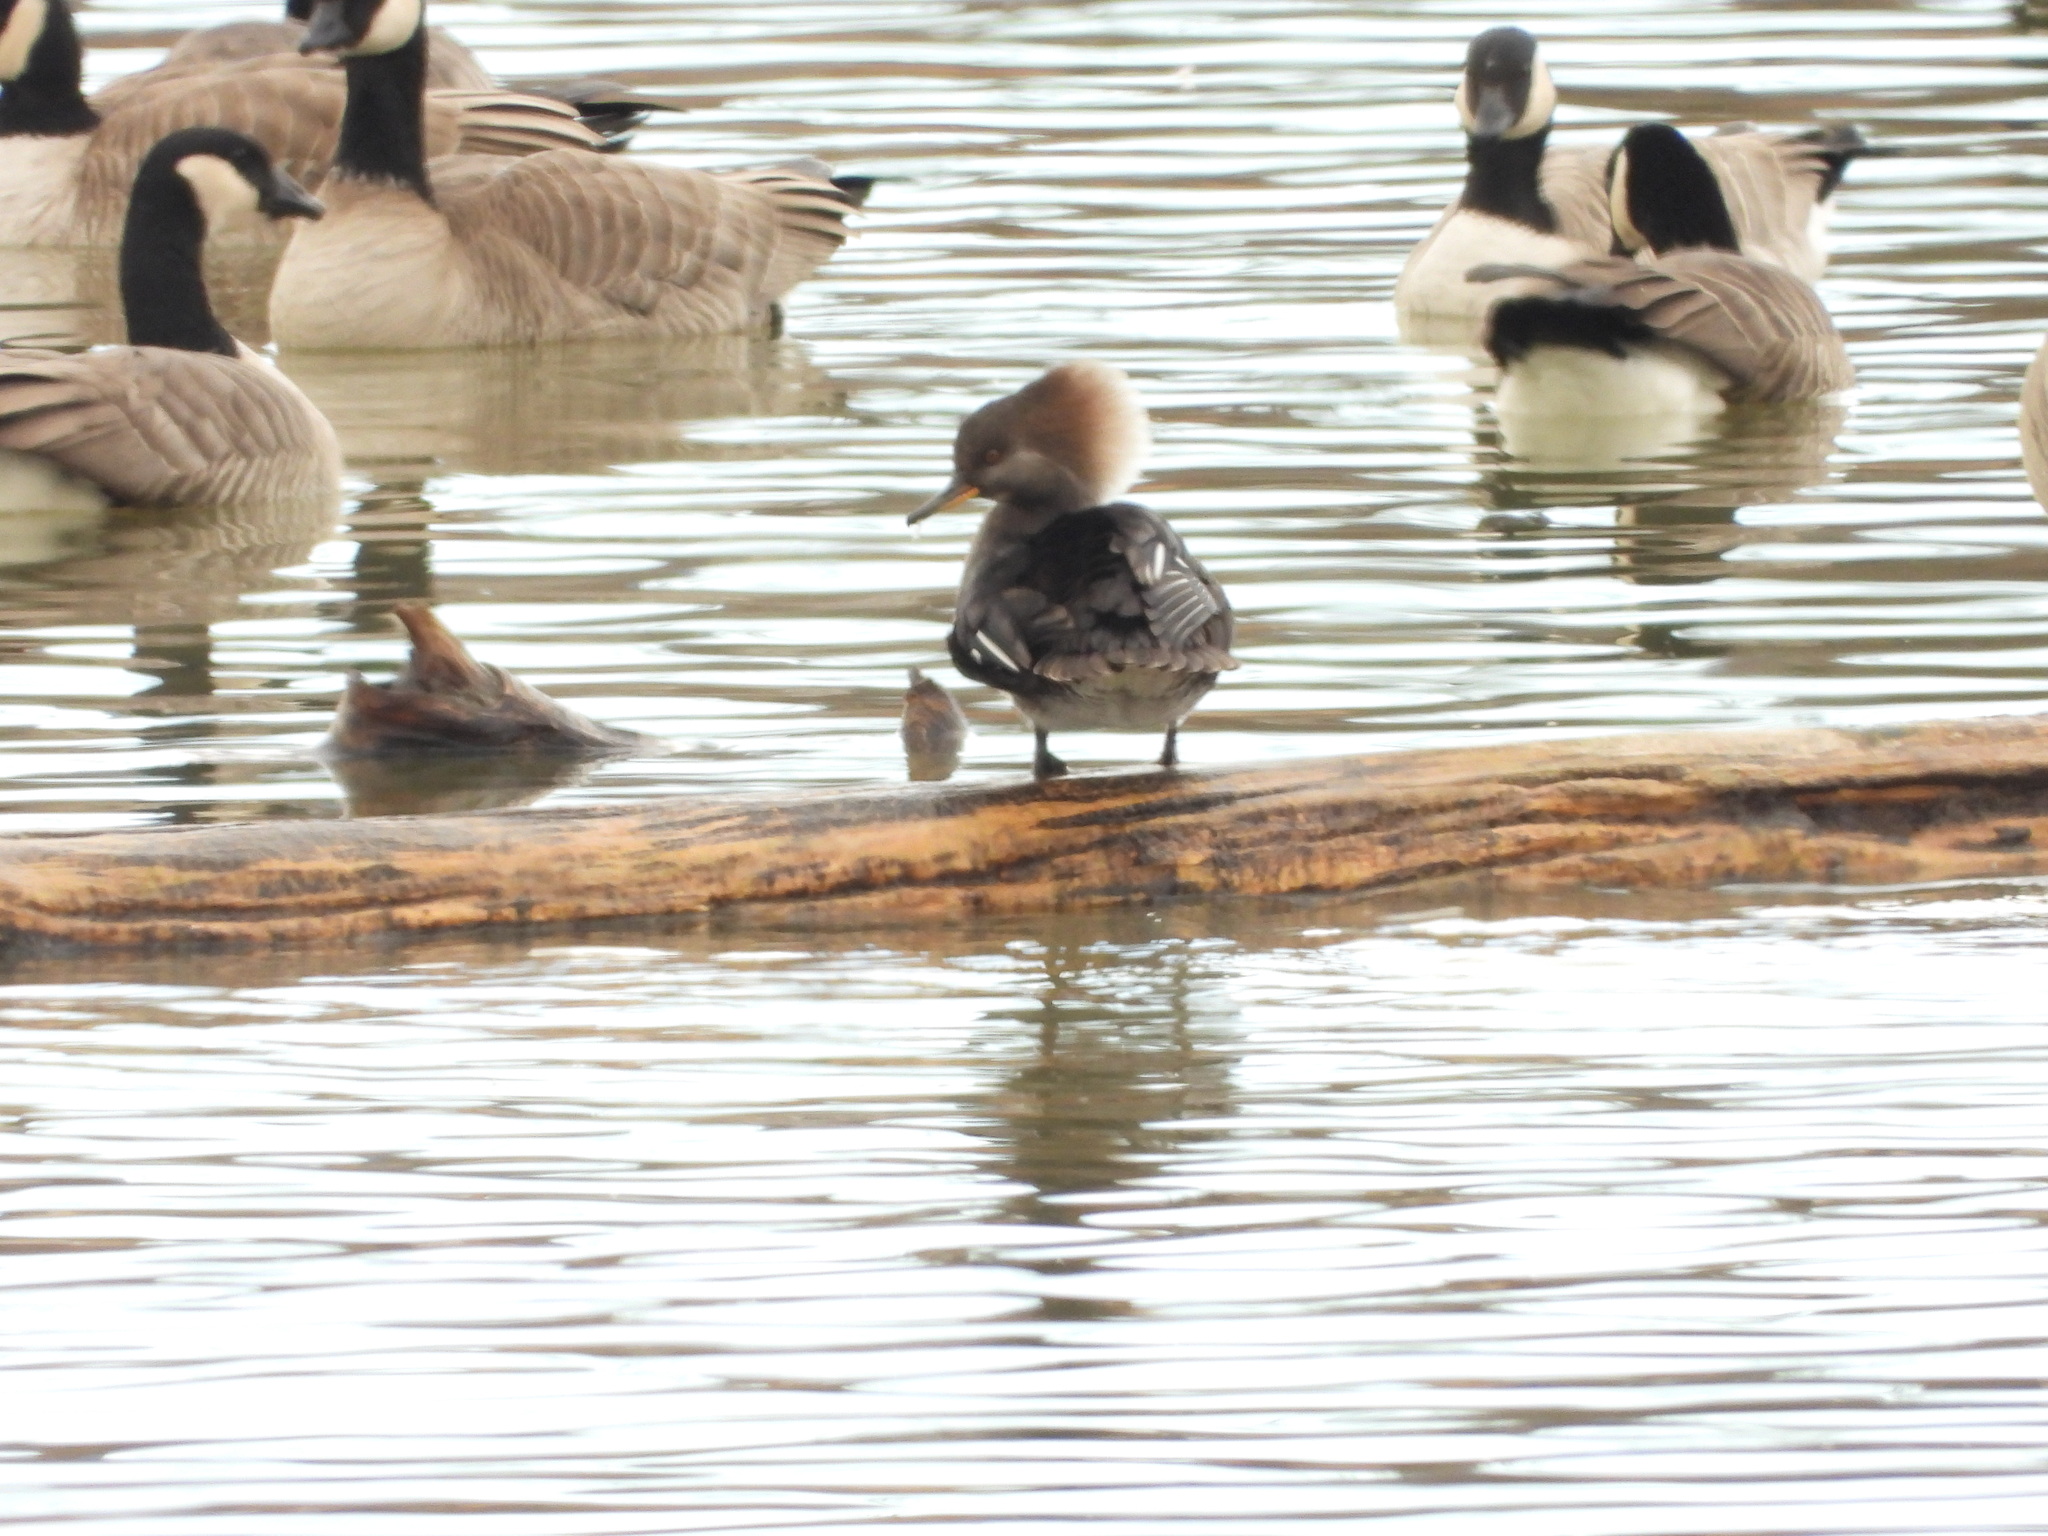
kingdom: Animalia
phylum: Chordata
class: Aves
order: Anseriformes
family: Anatidae
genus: Lophodytes
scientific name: Lophodytes cucullatus
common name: Hooded merganser
